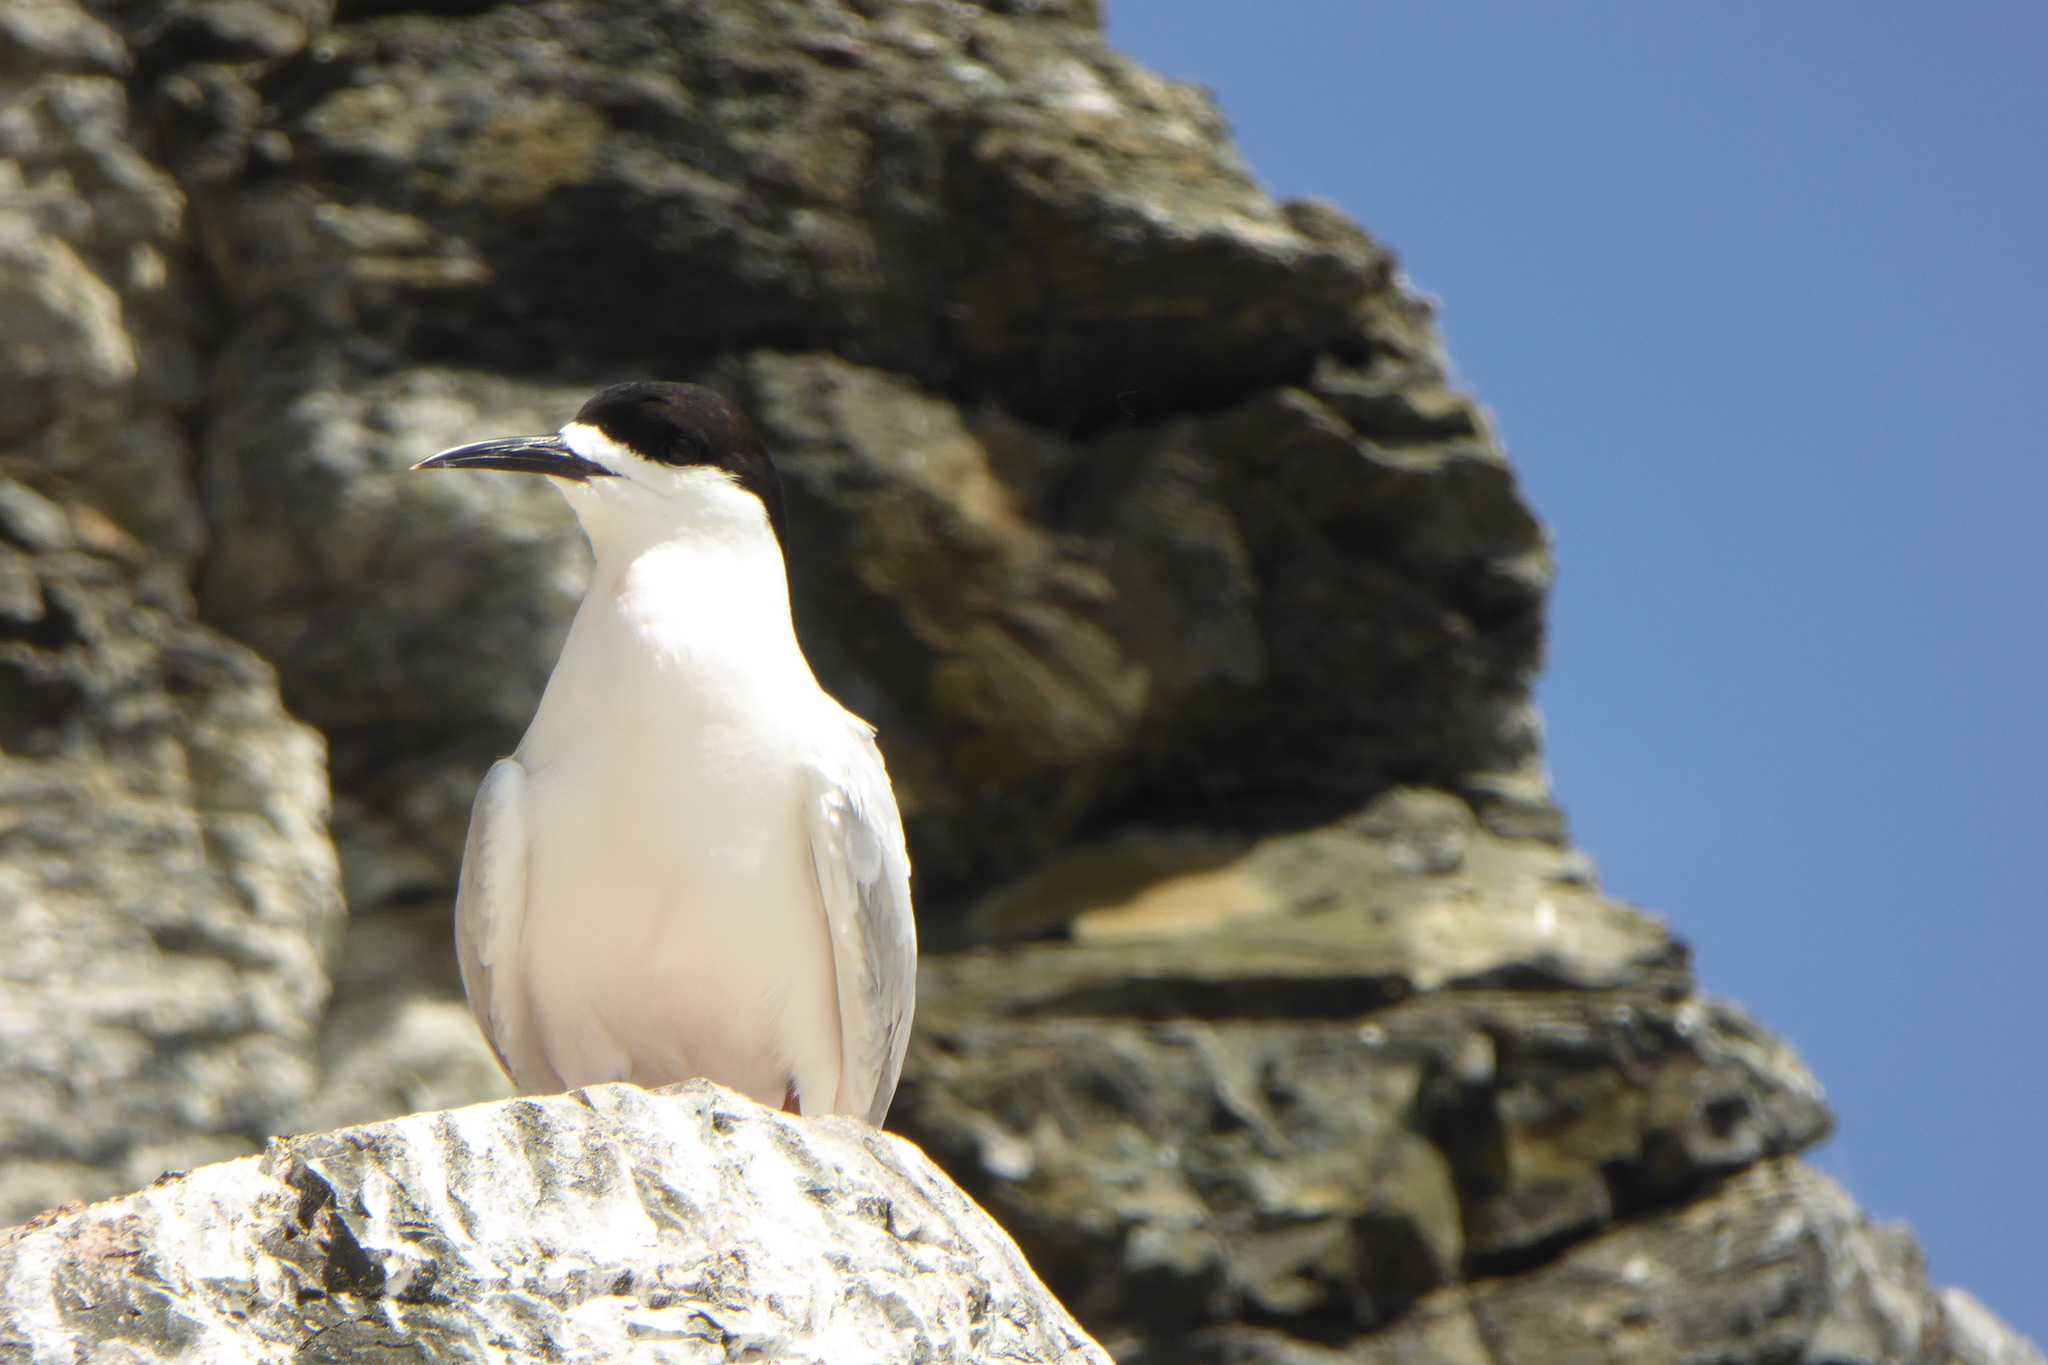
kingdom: Animalia
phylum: Chordata
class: Aves
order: Charadriiformes
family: Laridae
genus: Sterna
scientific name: Sterna striata
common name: White-fronted tern
